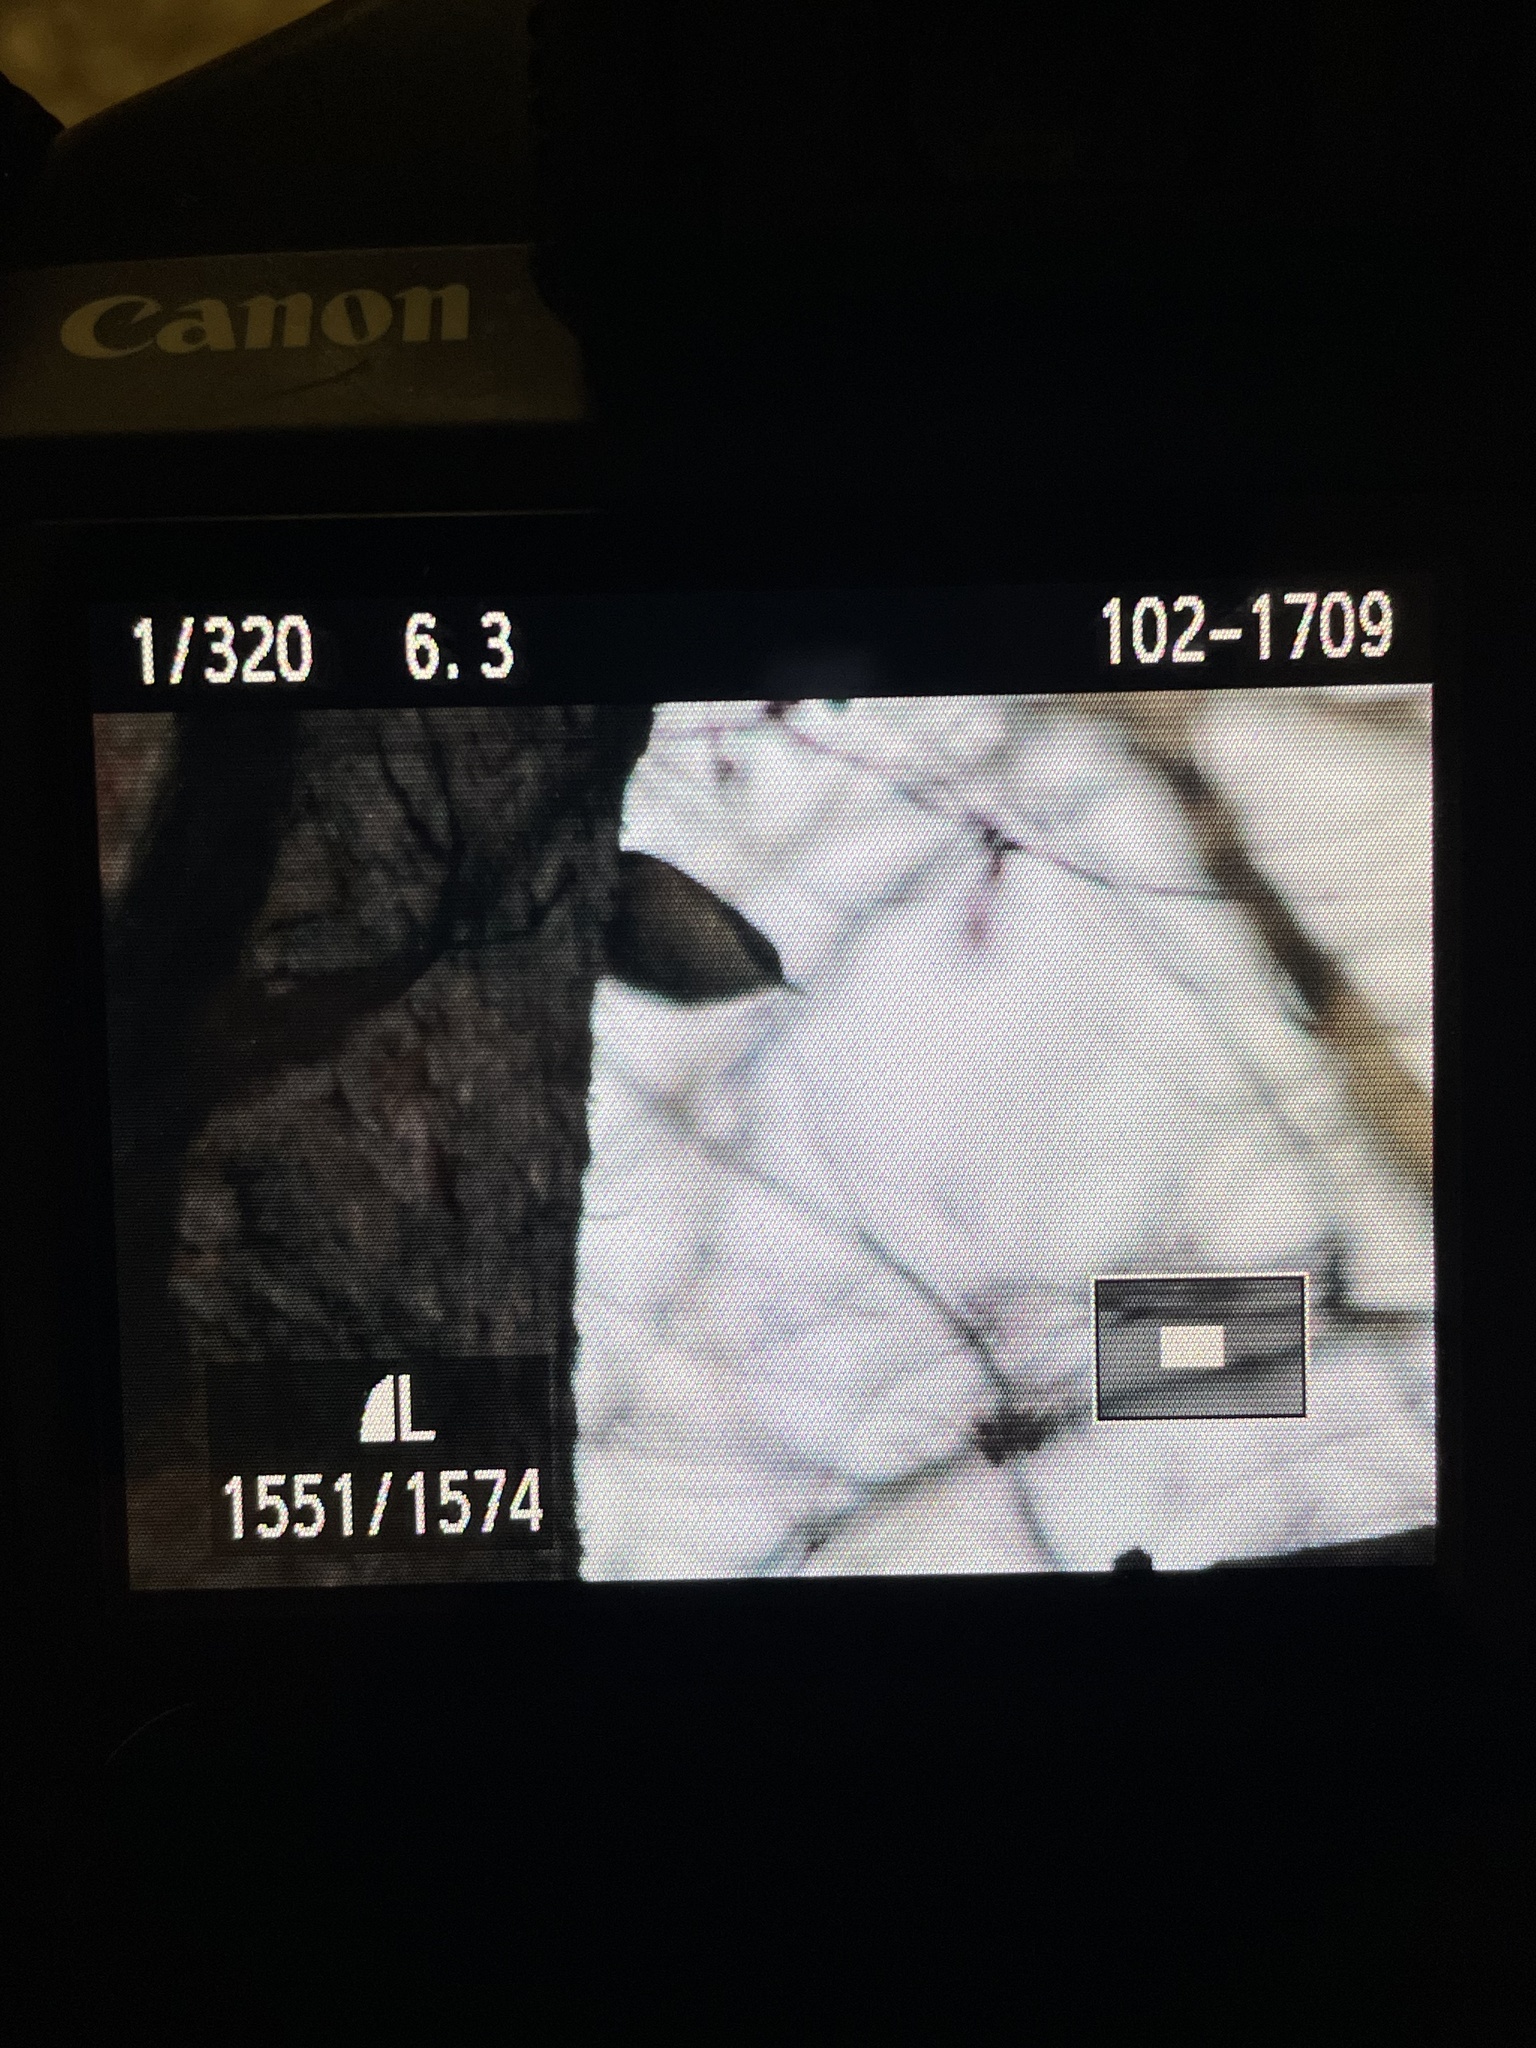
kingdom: Animalia
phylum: Chordata
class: Aves
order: Passeriformes
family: Sittidae
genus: Sitta
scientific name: Sitta europaea
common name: Eurasian nuthatch
